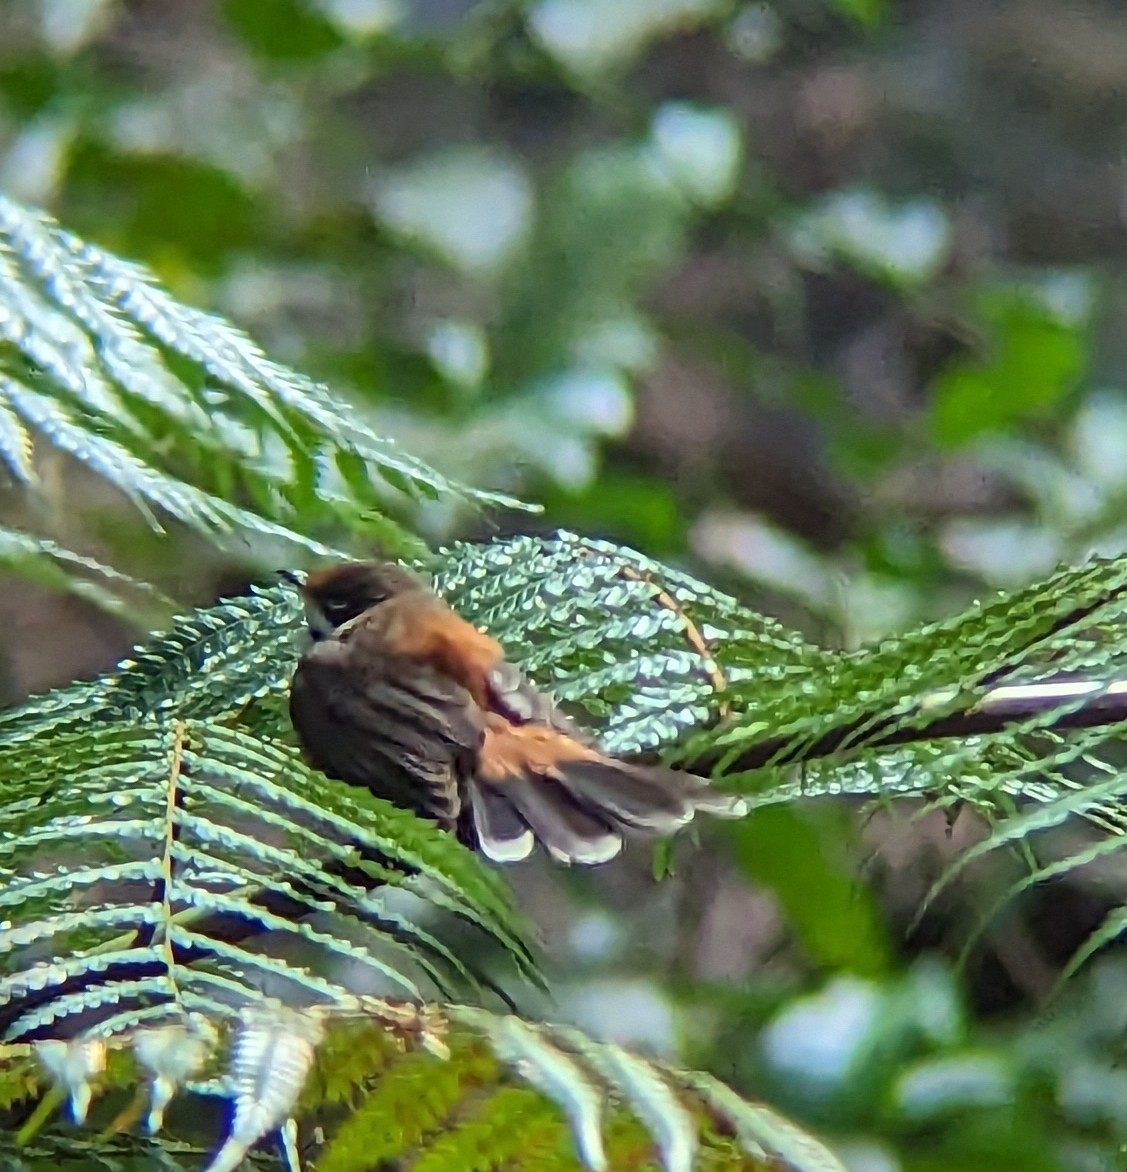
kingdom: Animalia
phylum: Chordata
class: Aves
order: Passeriformes
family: Rhipiduridae
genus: Rhipidura
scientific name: Rhipidura rufifrons
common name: Rufous fantail
